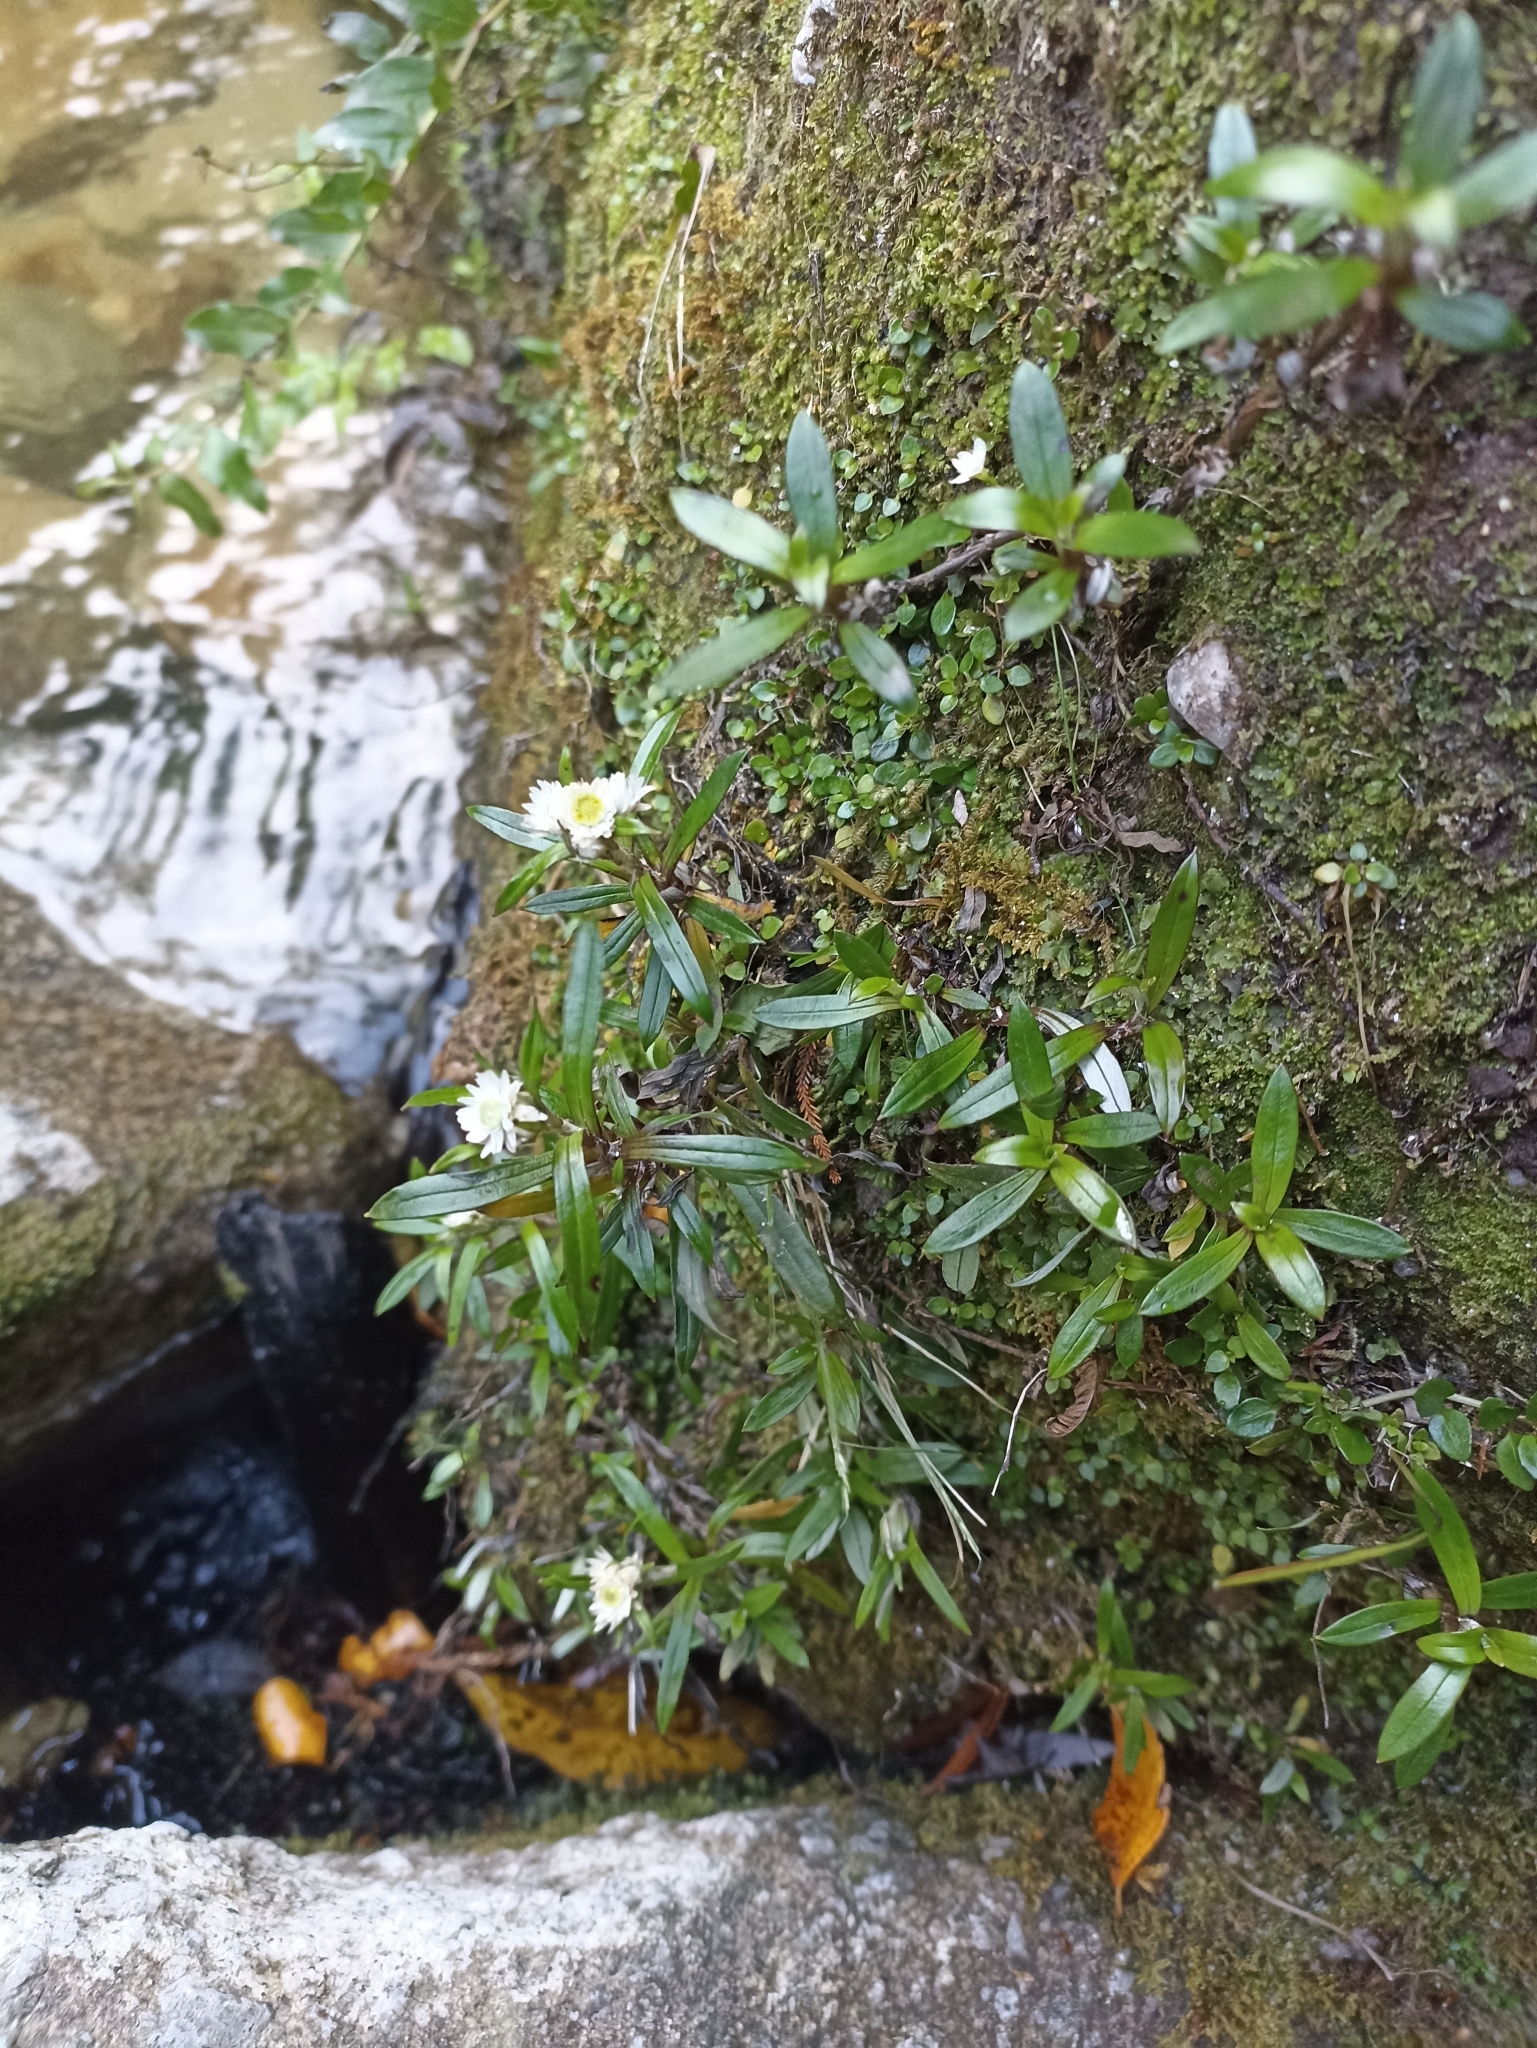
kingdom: Plantae
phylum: Tracheophyta
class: Magnoliopsida
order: Asterales
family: Asteraceae
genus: Anaphalioides
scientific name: Anaphalioides trinervis
